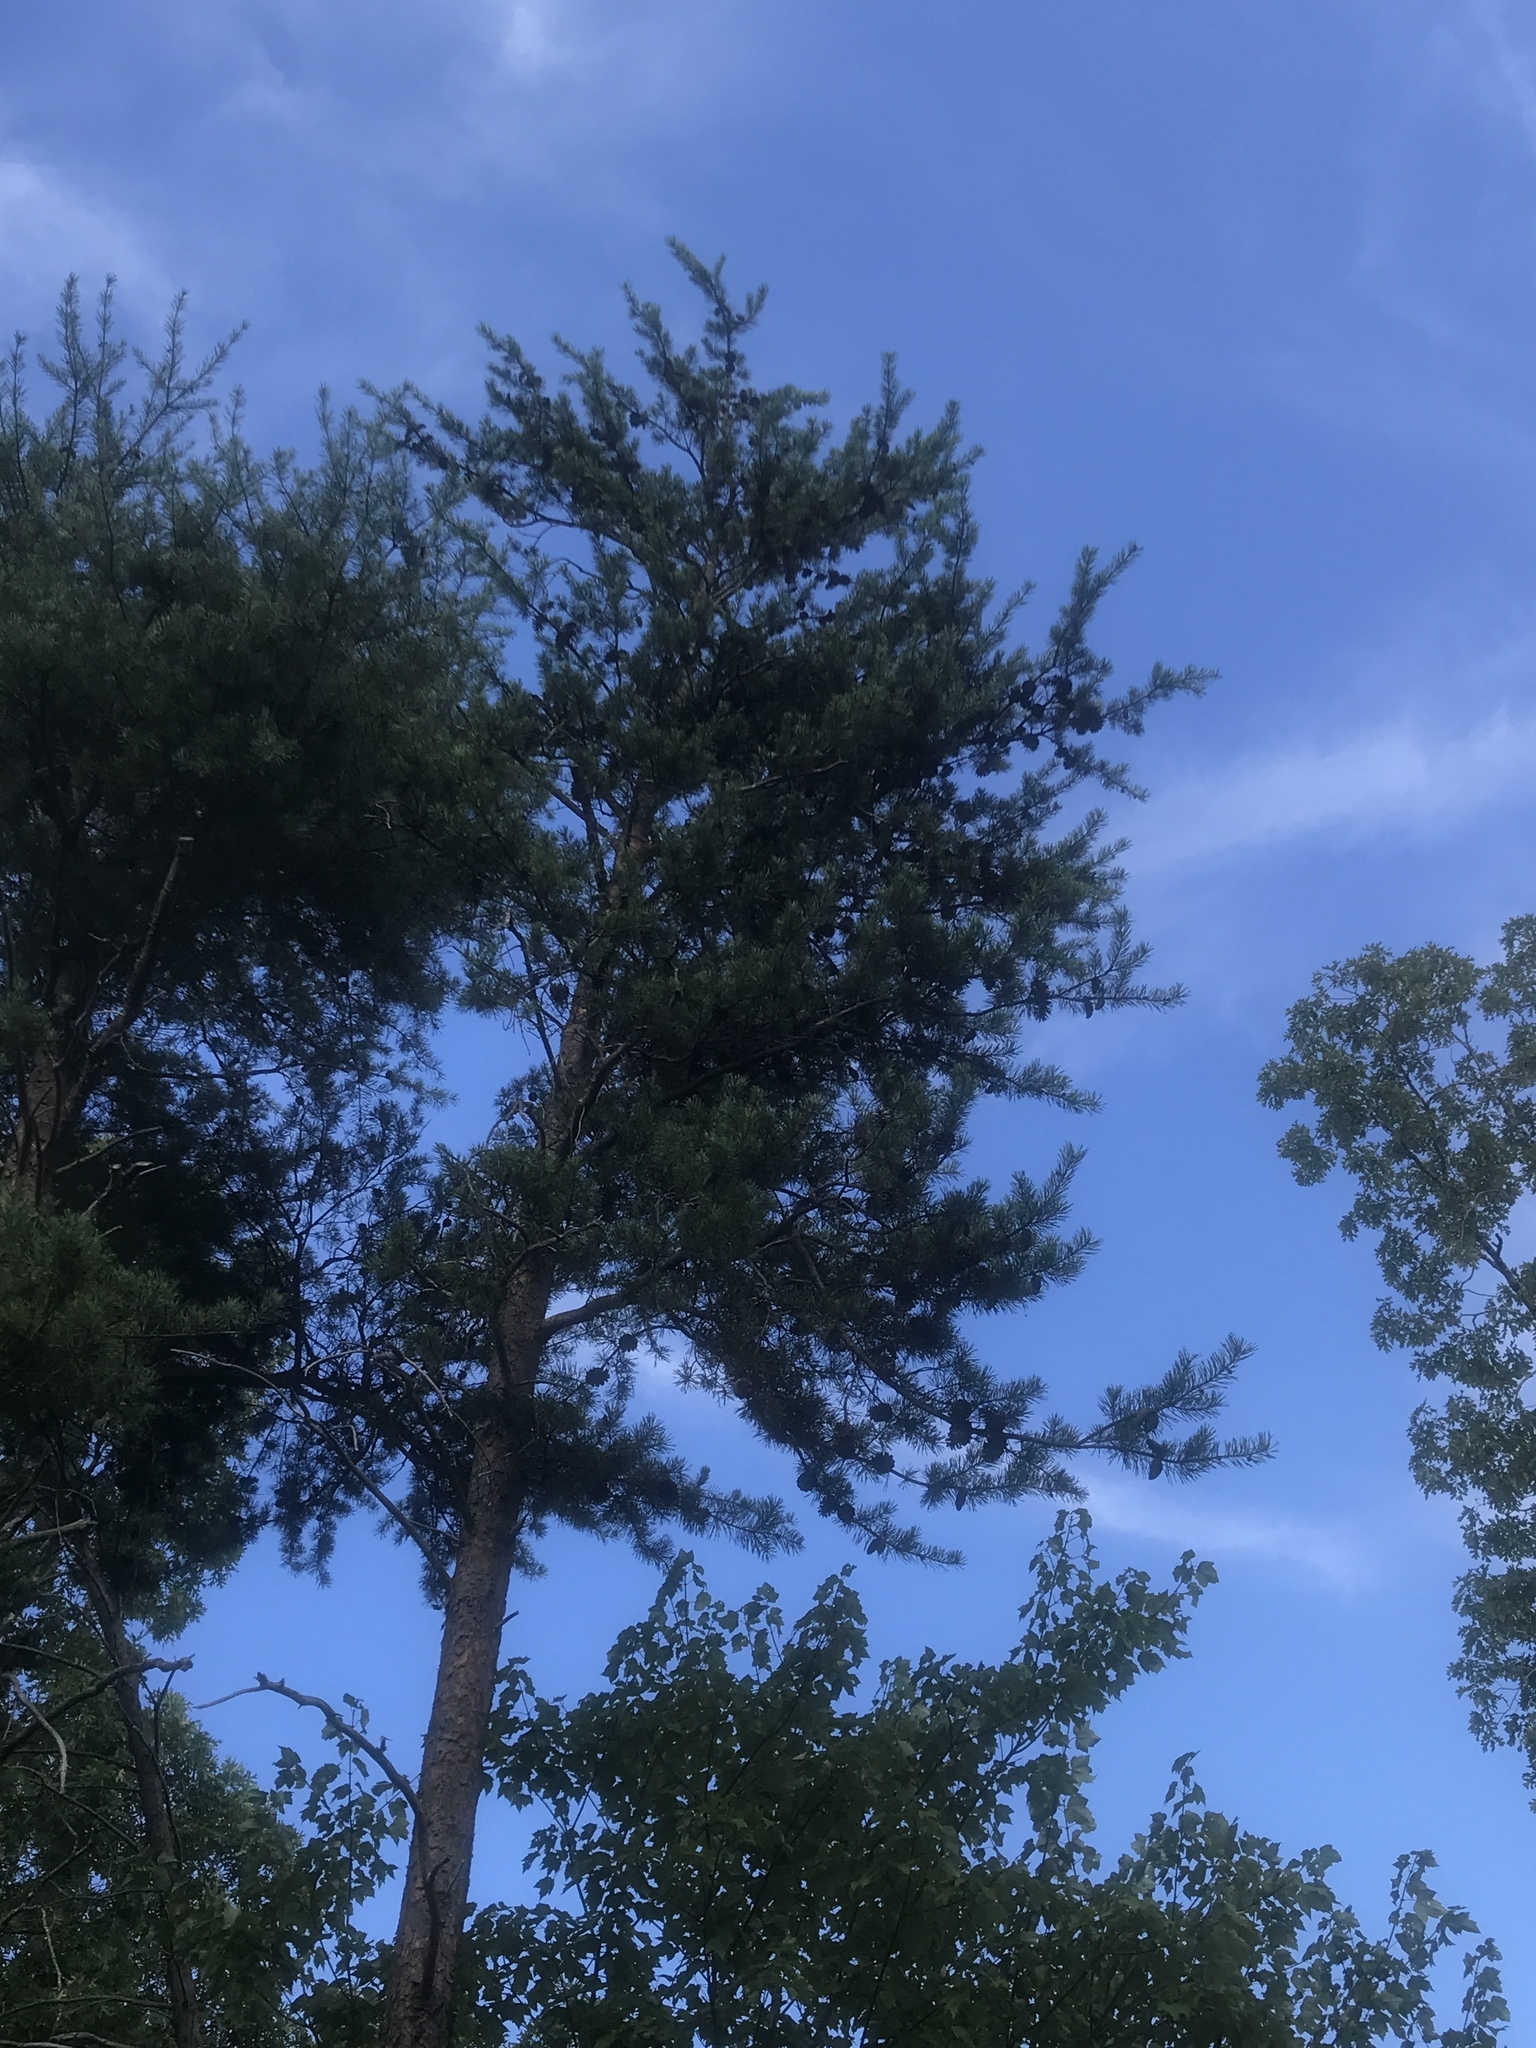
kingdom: Plantae
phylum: Tracheophyta
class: Pinopsida
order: Pinales
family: Pinaceae
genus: Pinus
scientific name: Pinus virginiana
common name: Scrub pine
